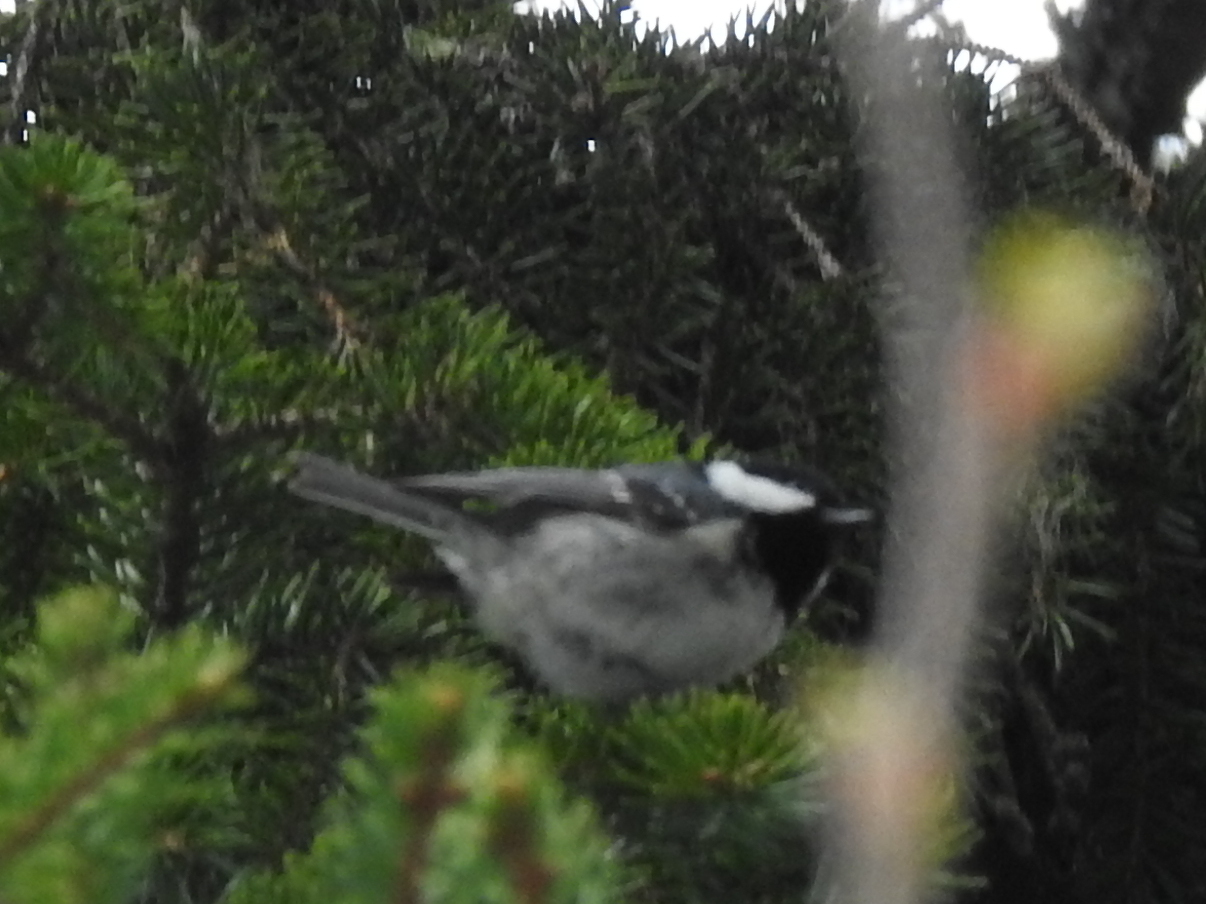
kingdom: Animalia
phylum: Chordata
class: Aves
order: Passeriformes
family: Paridae
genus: Periparus
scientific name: Periparus ater
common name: Coal tit
